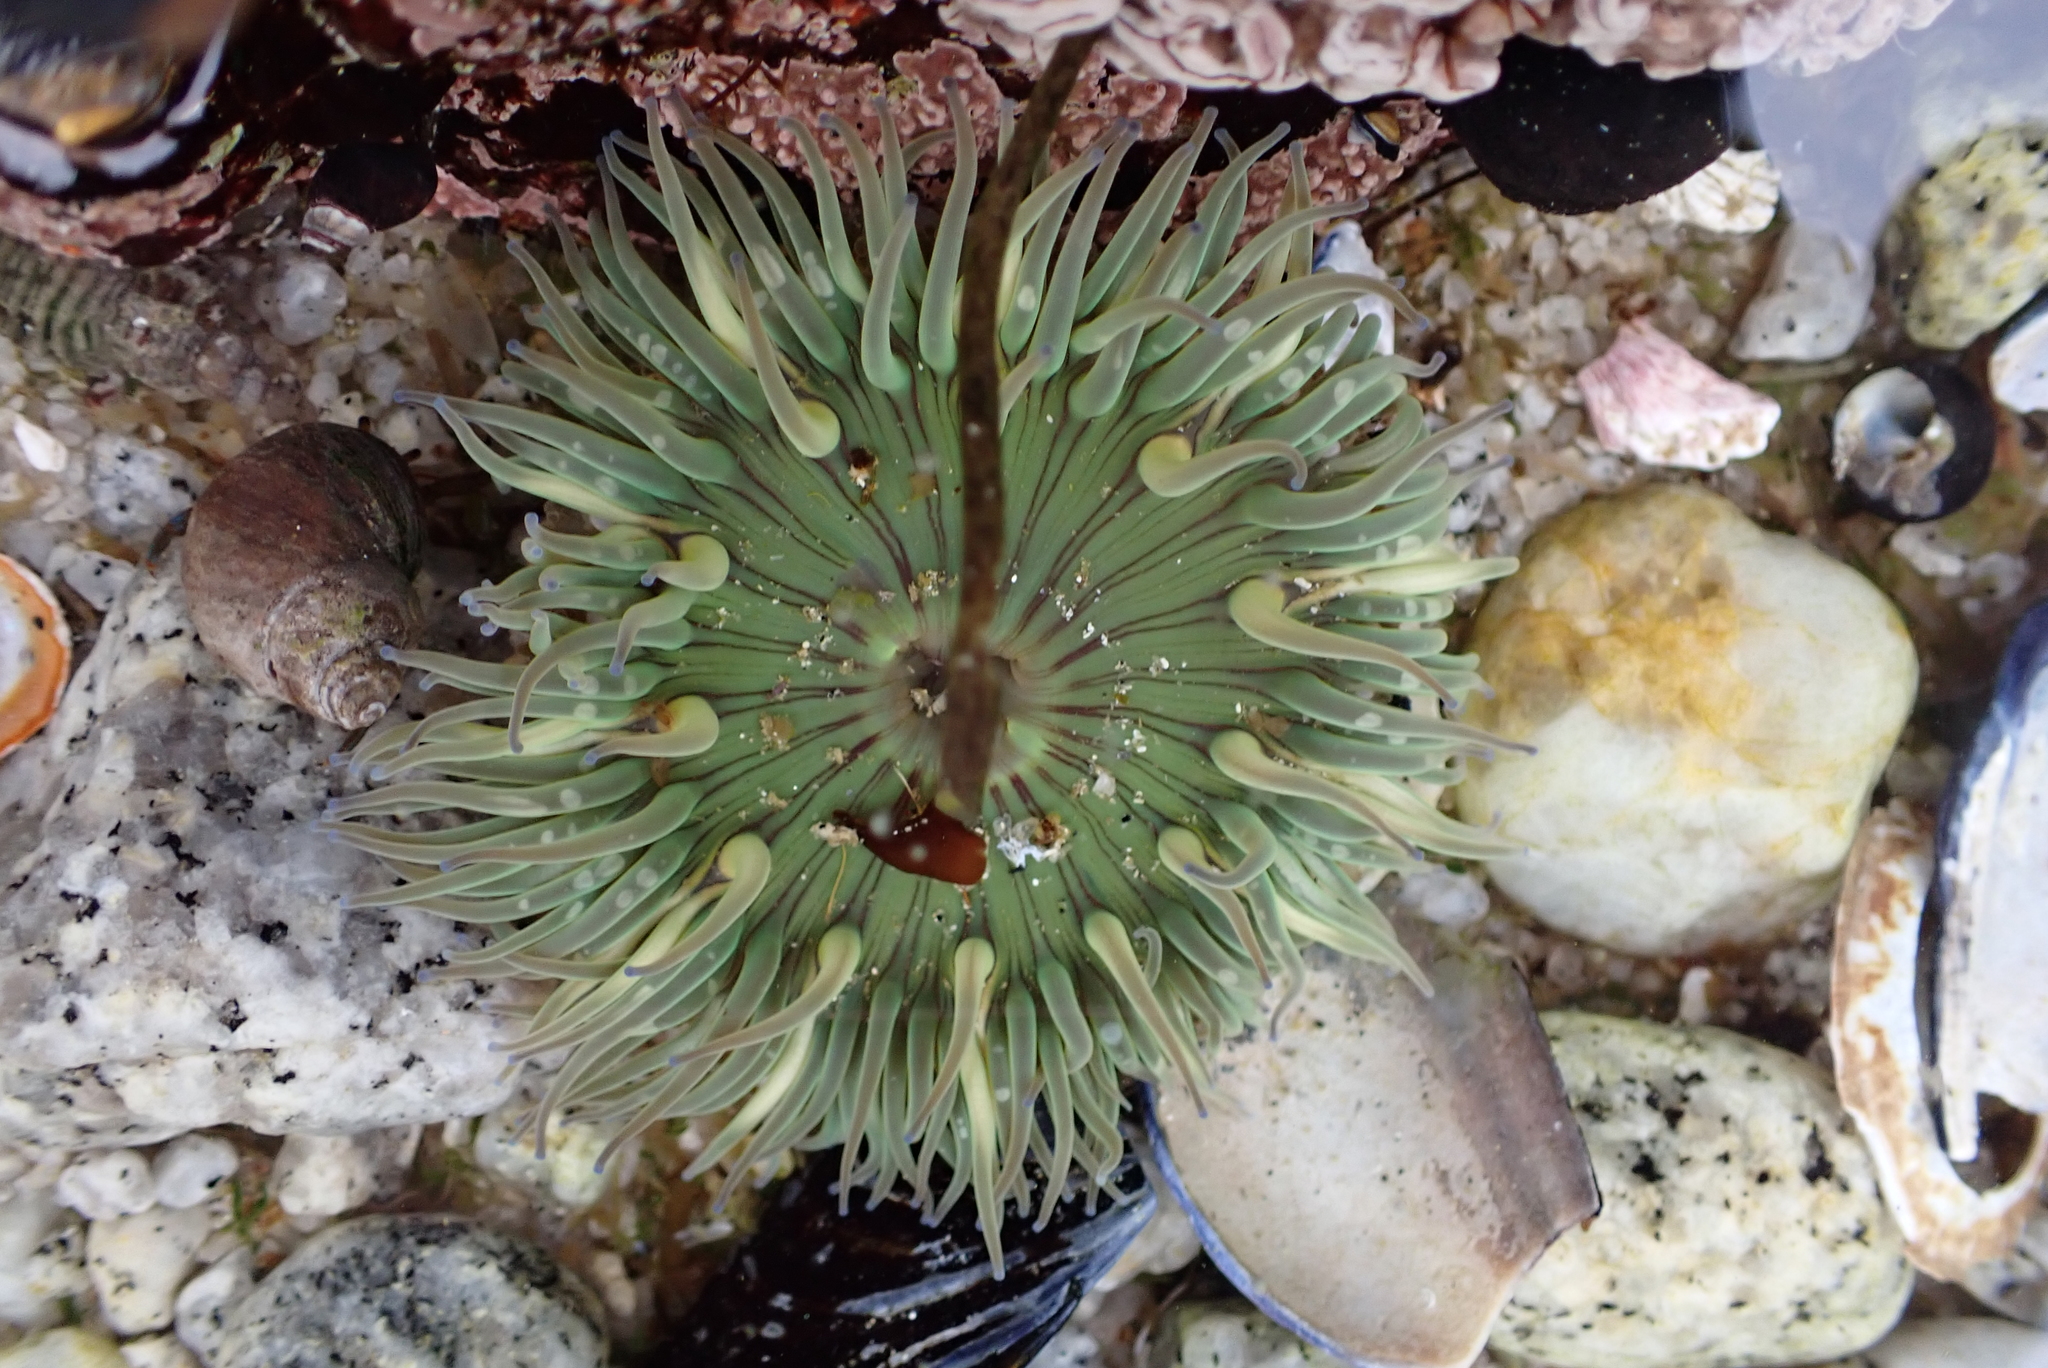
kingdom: Animalia
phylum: Cnidaria
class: Anthozoa
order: Actiniaria
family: Actiniidae
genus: Anthopleura
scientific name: Anthopleura sola
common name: Sun anemone
